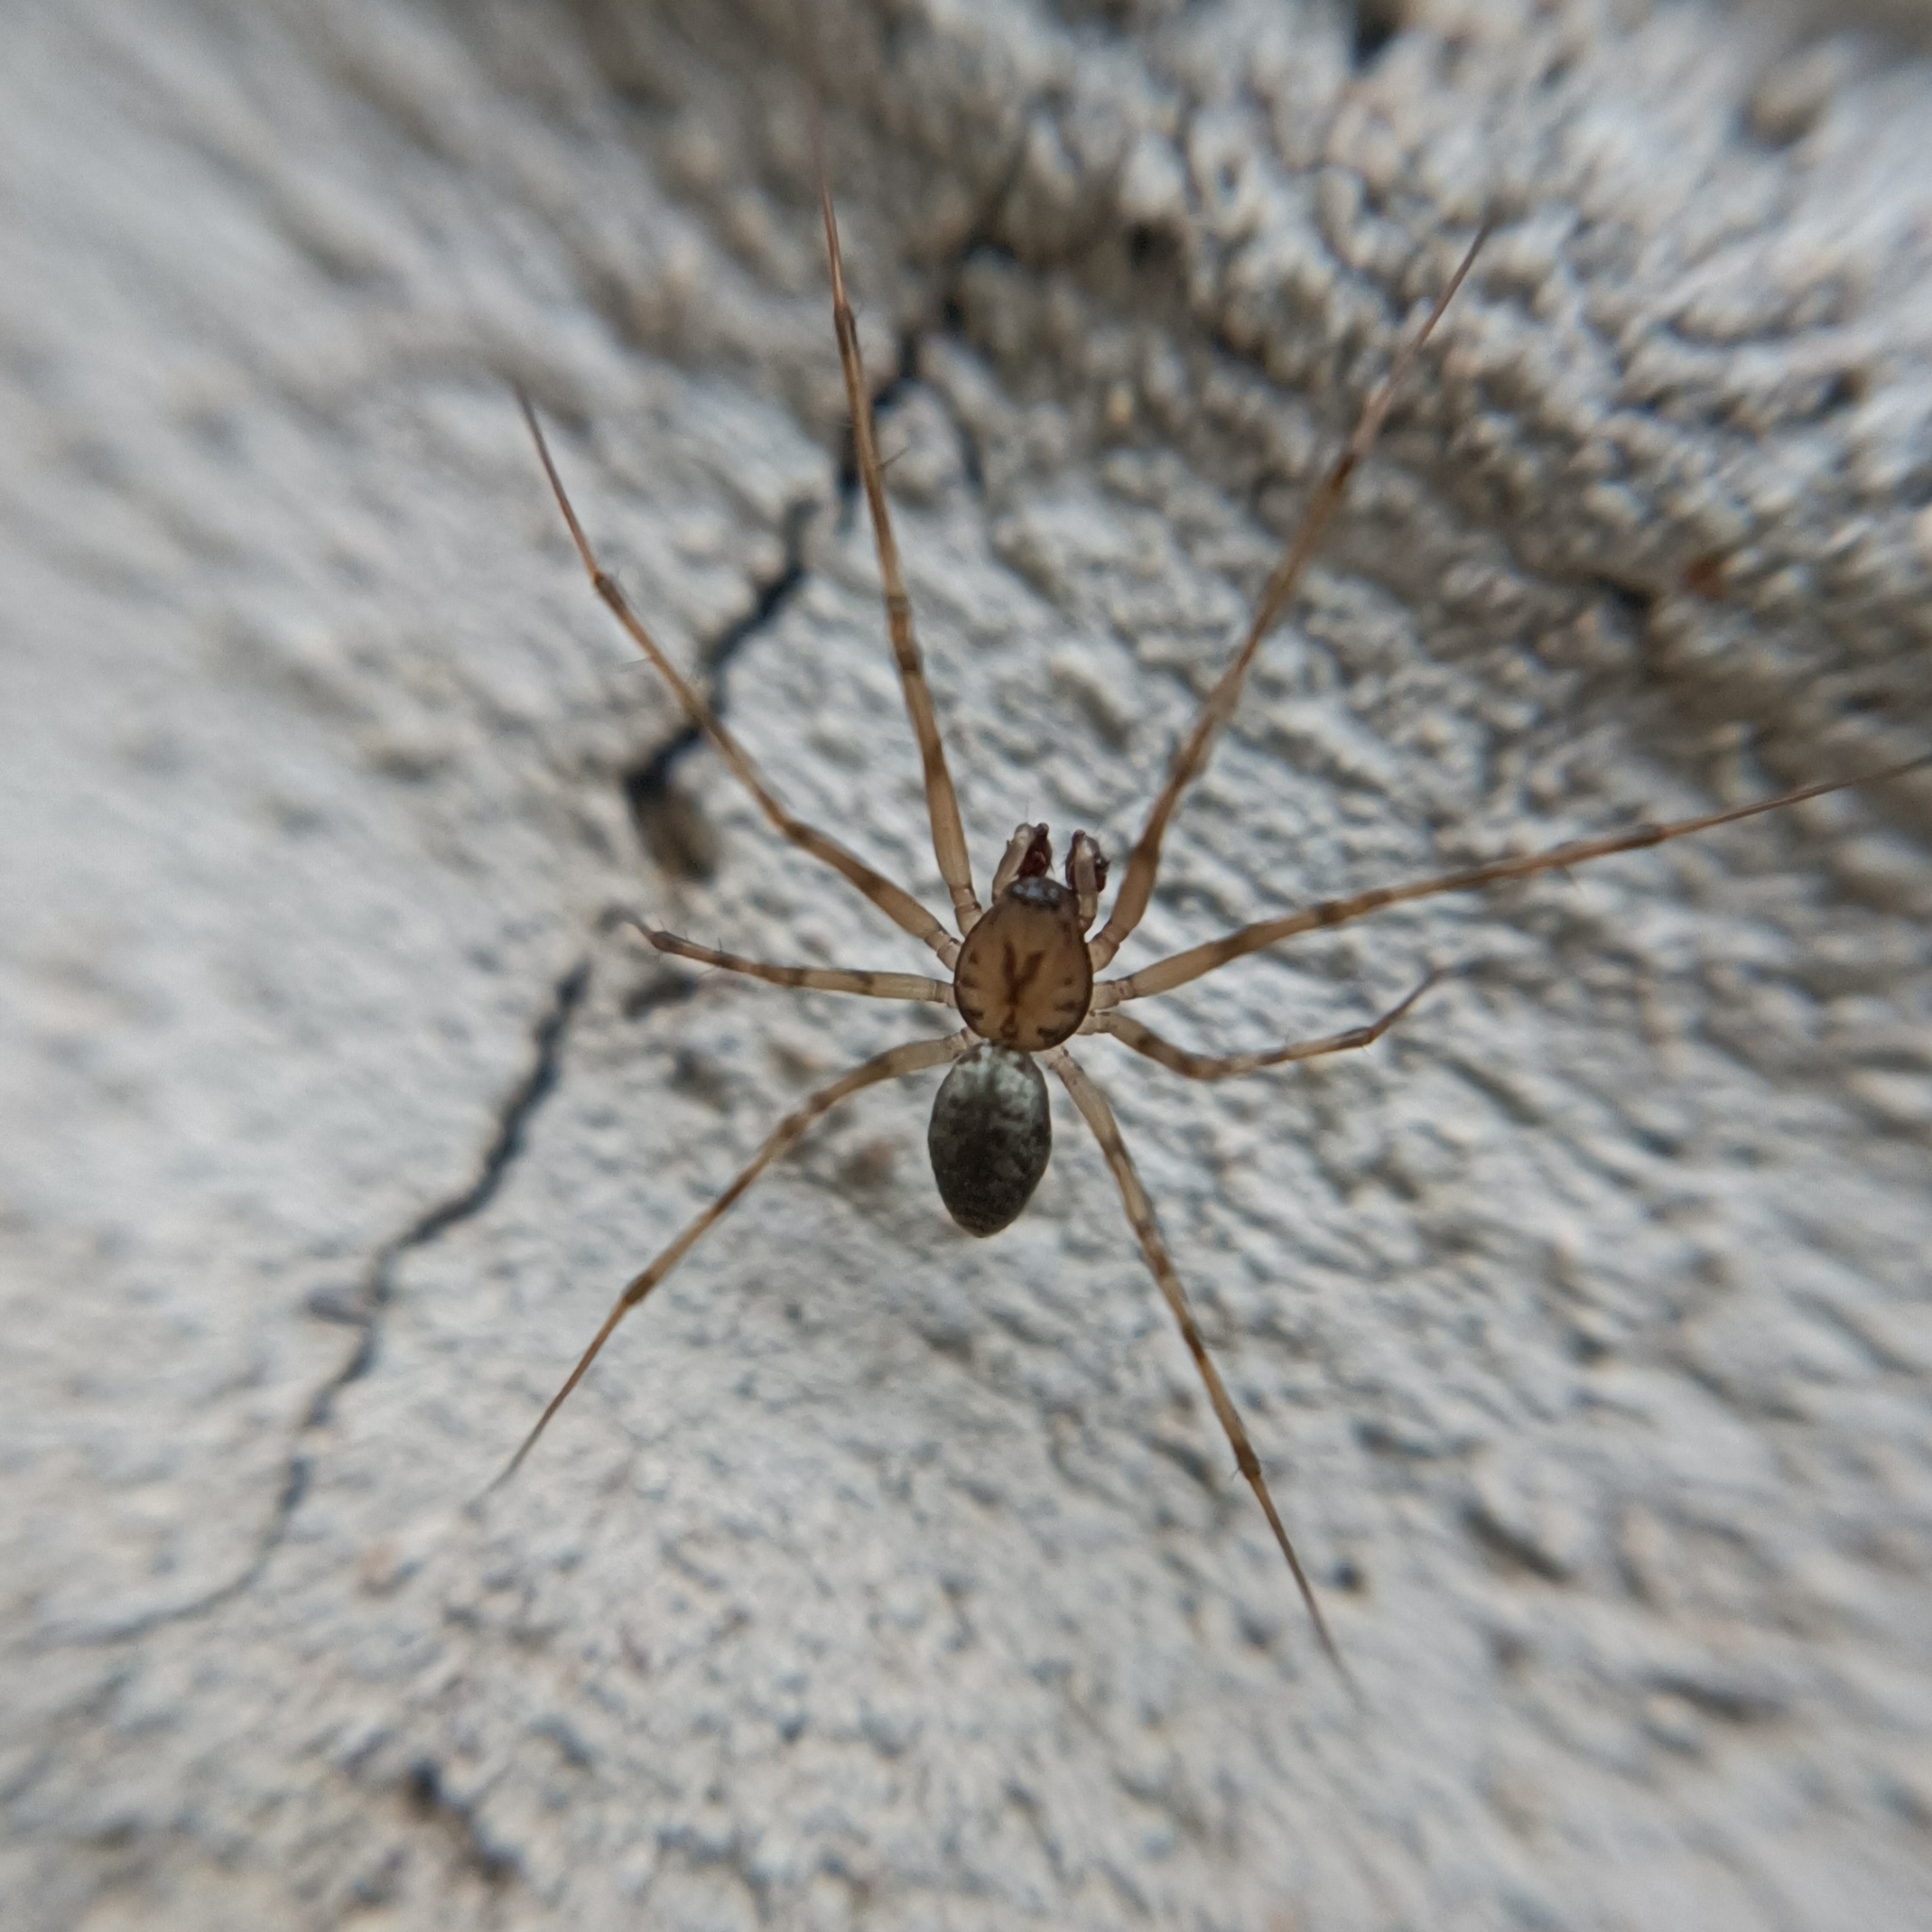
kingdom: Animalia
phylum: Arthropoda
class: Arachnida
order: Araneae
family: Linyphiidae
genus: Drapetisca
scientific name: Drapetisca socialis
